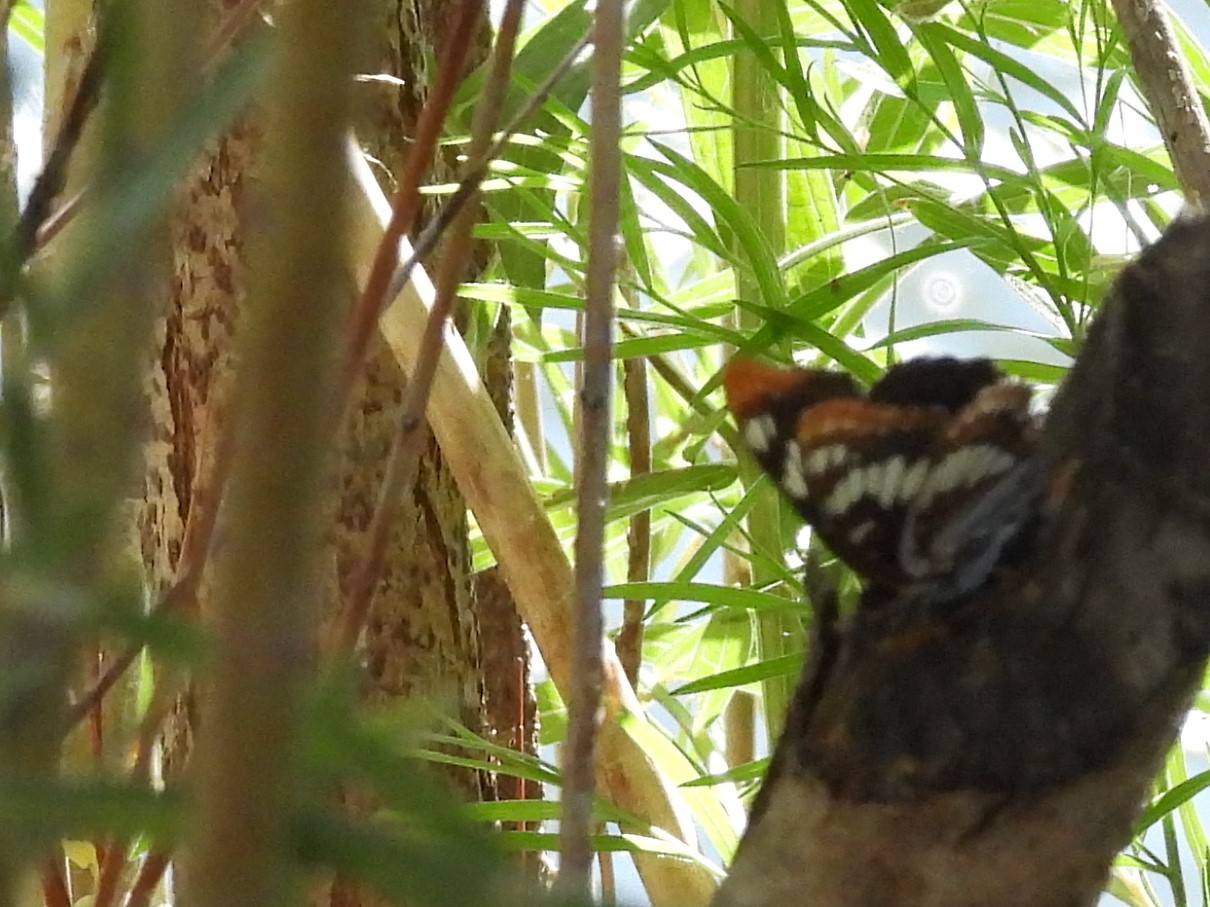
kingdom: Animalia
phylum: Arthropoda
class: Insecta
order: Lepidoptera
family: Nymphalidae
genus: Limenitis
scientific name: Limenitis lorquini
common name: Lorquin's admiral
